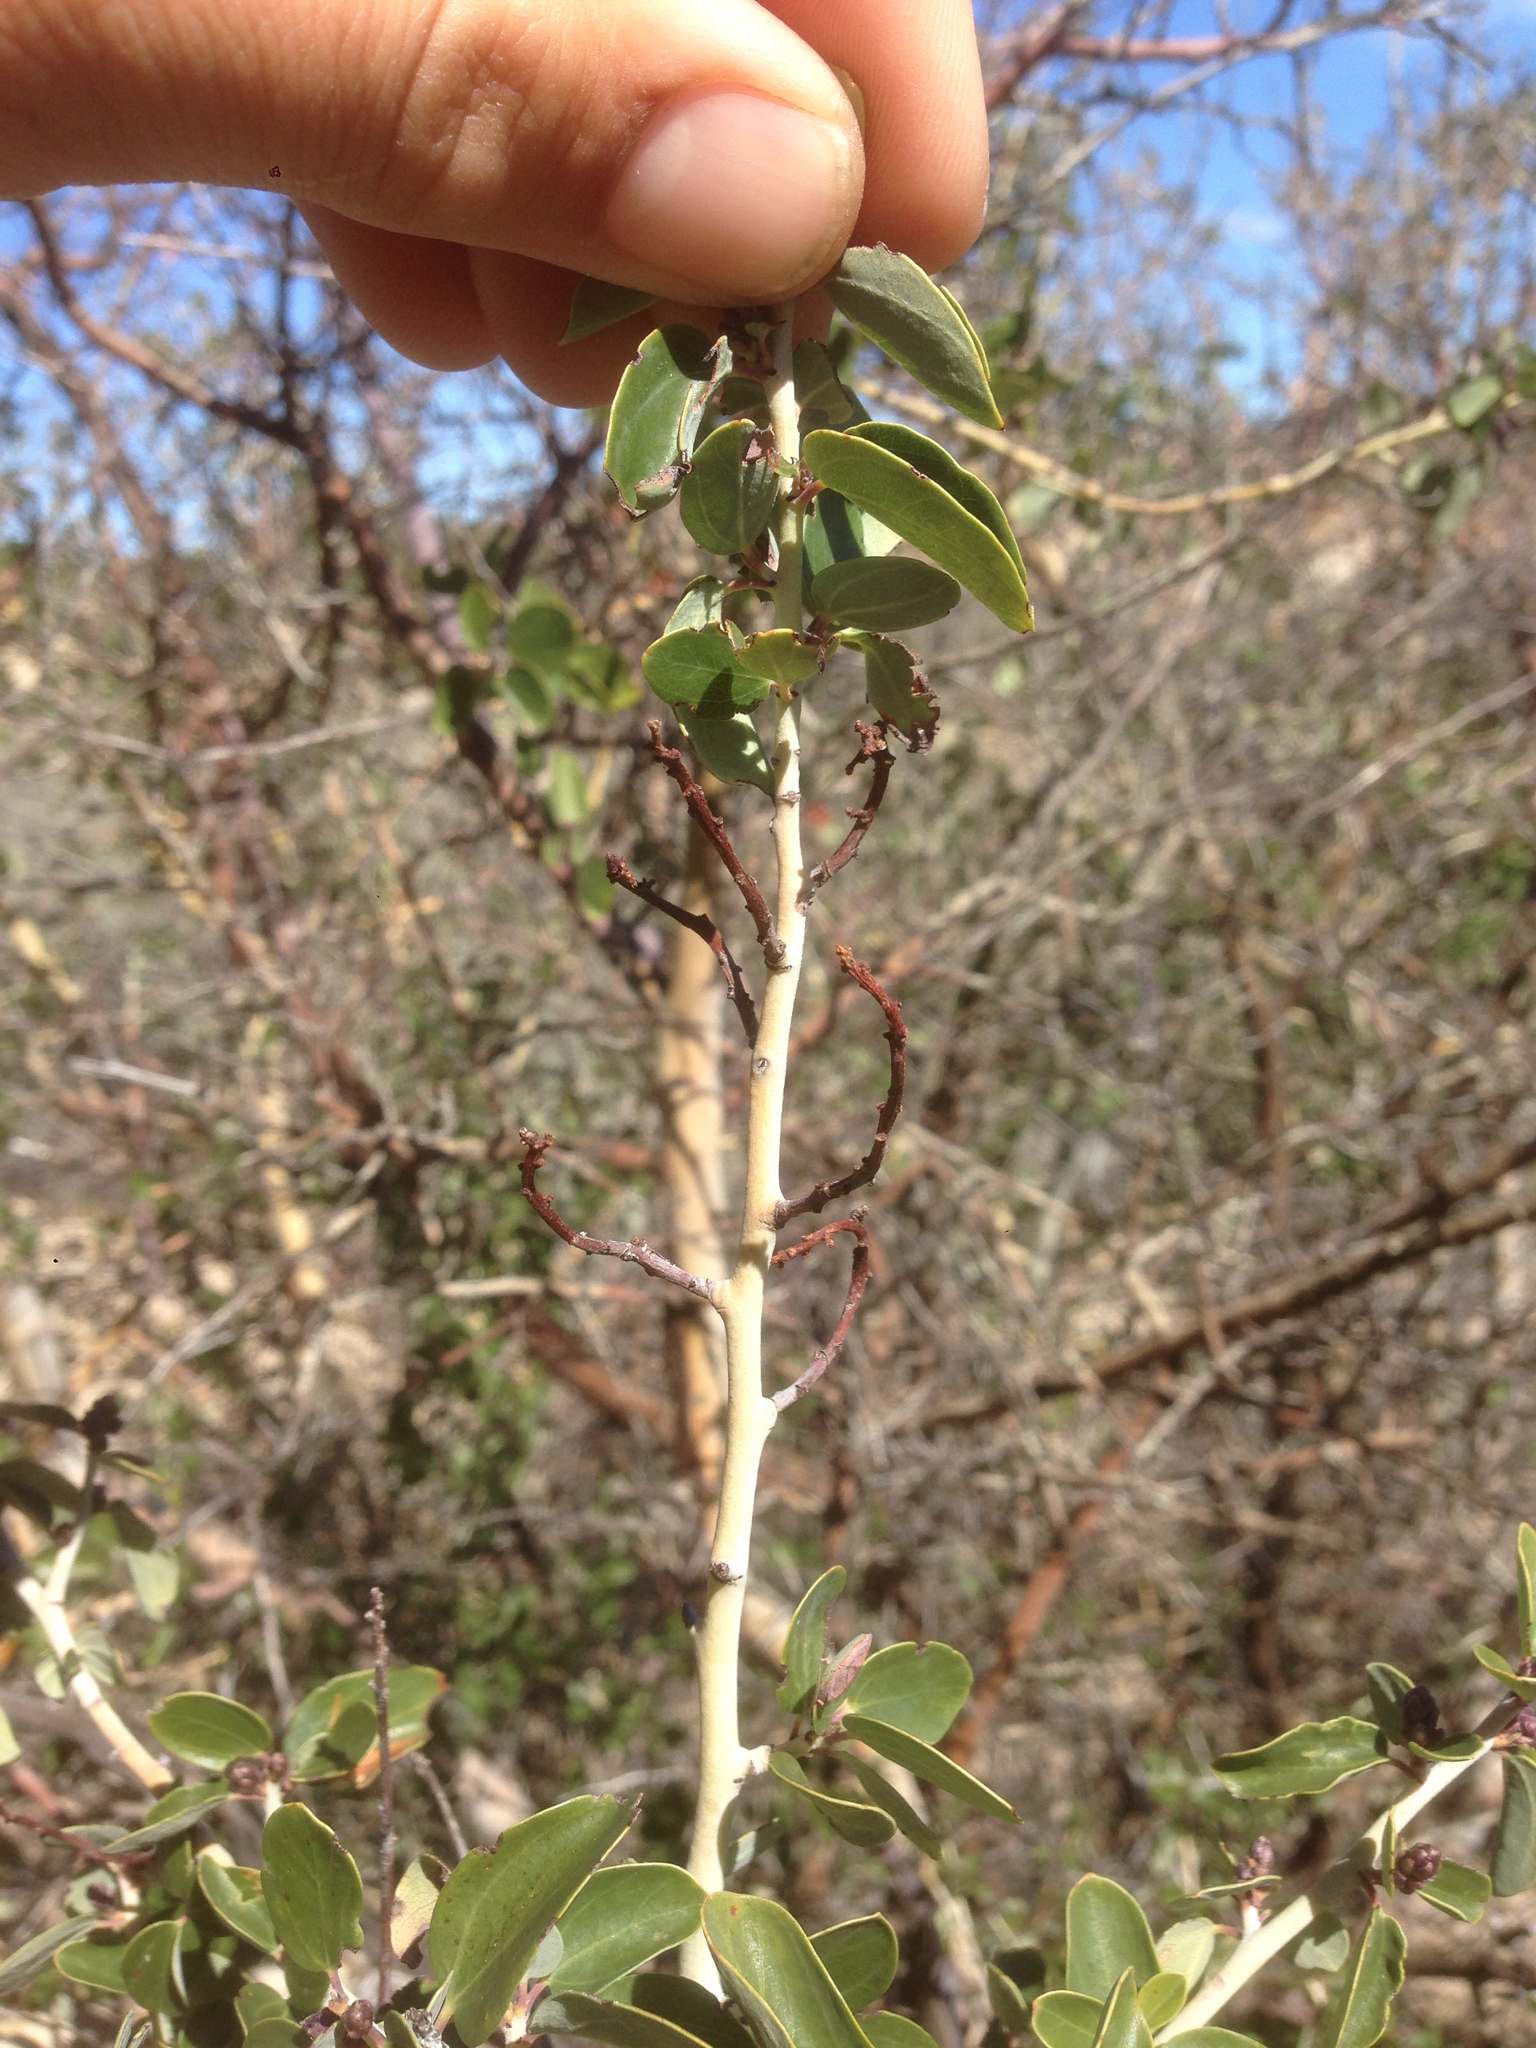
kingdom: Plantae
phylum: Tracheophyta
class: Magnoliopsida
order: Rosales
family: Rhamnaceae
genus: Ceanothus
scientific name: Ceanothus leucodermis
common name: Chaparral whitethorn
